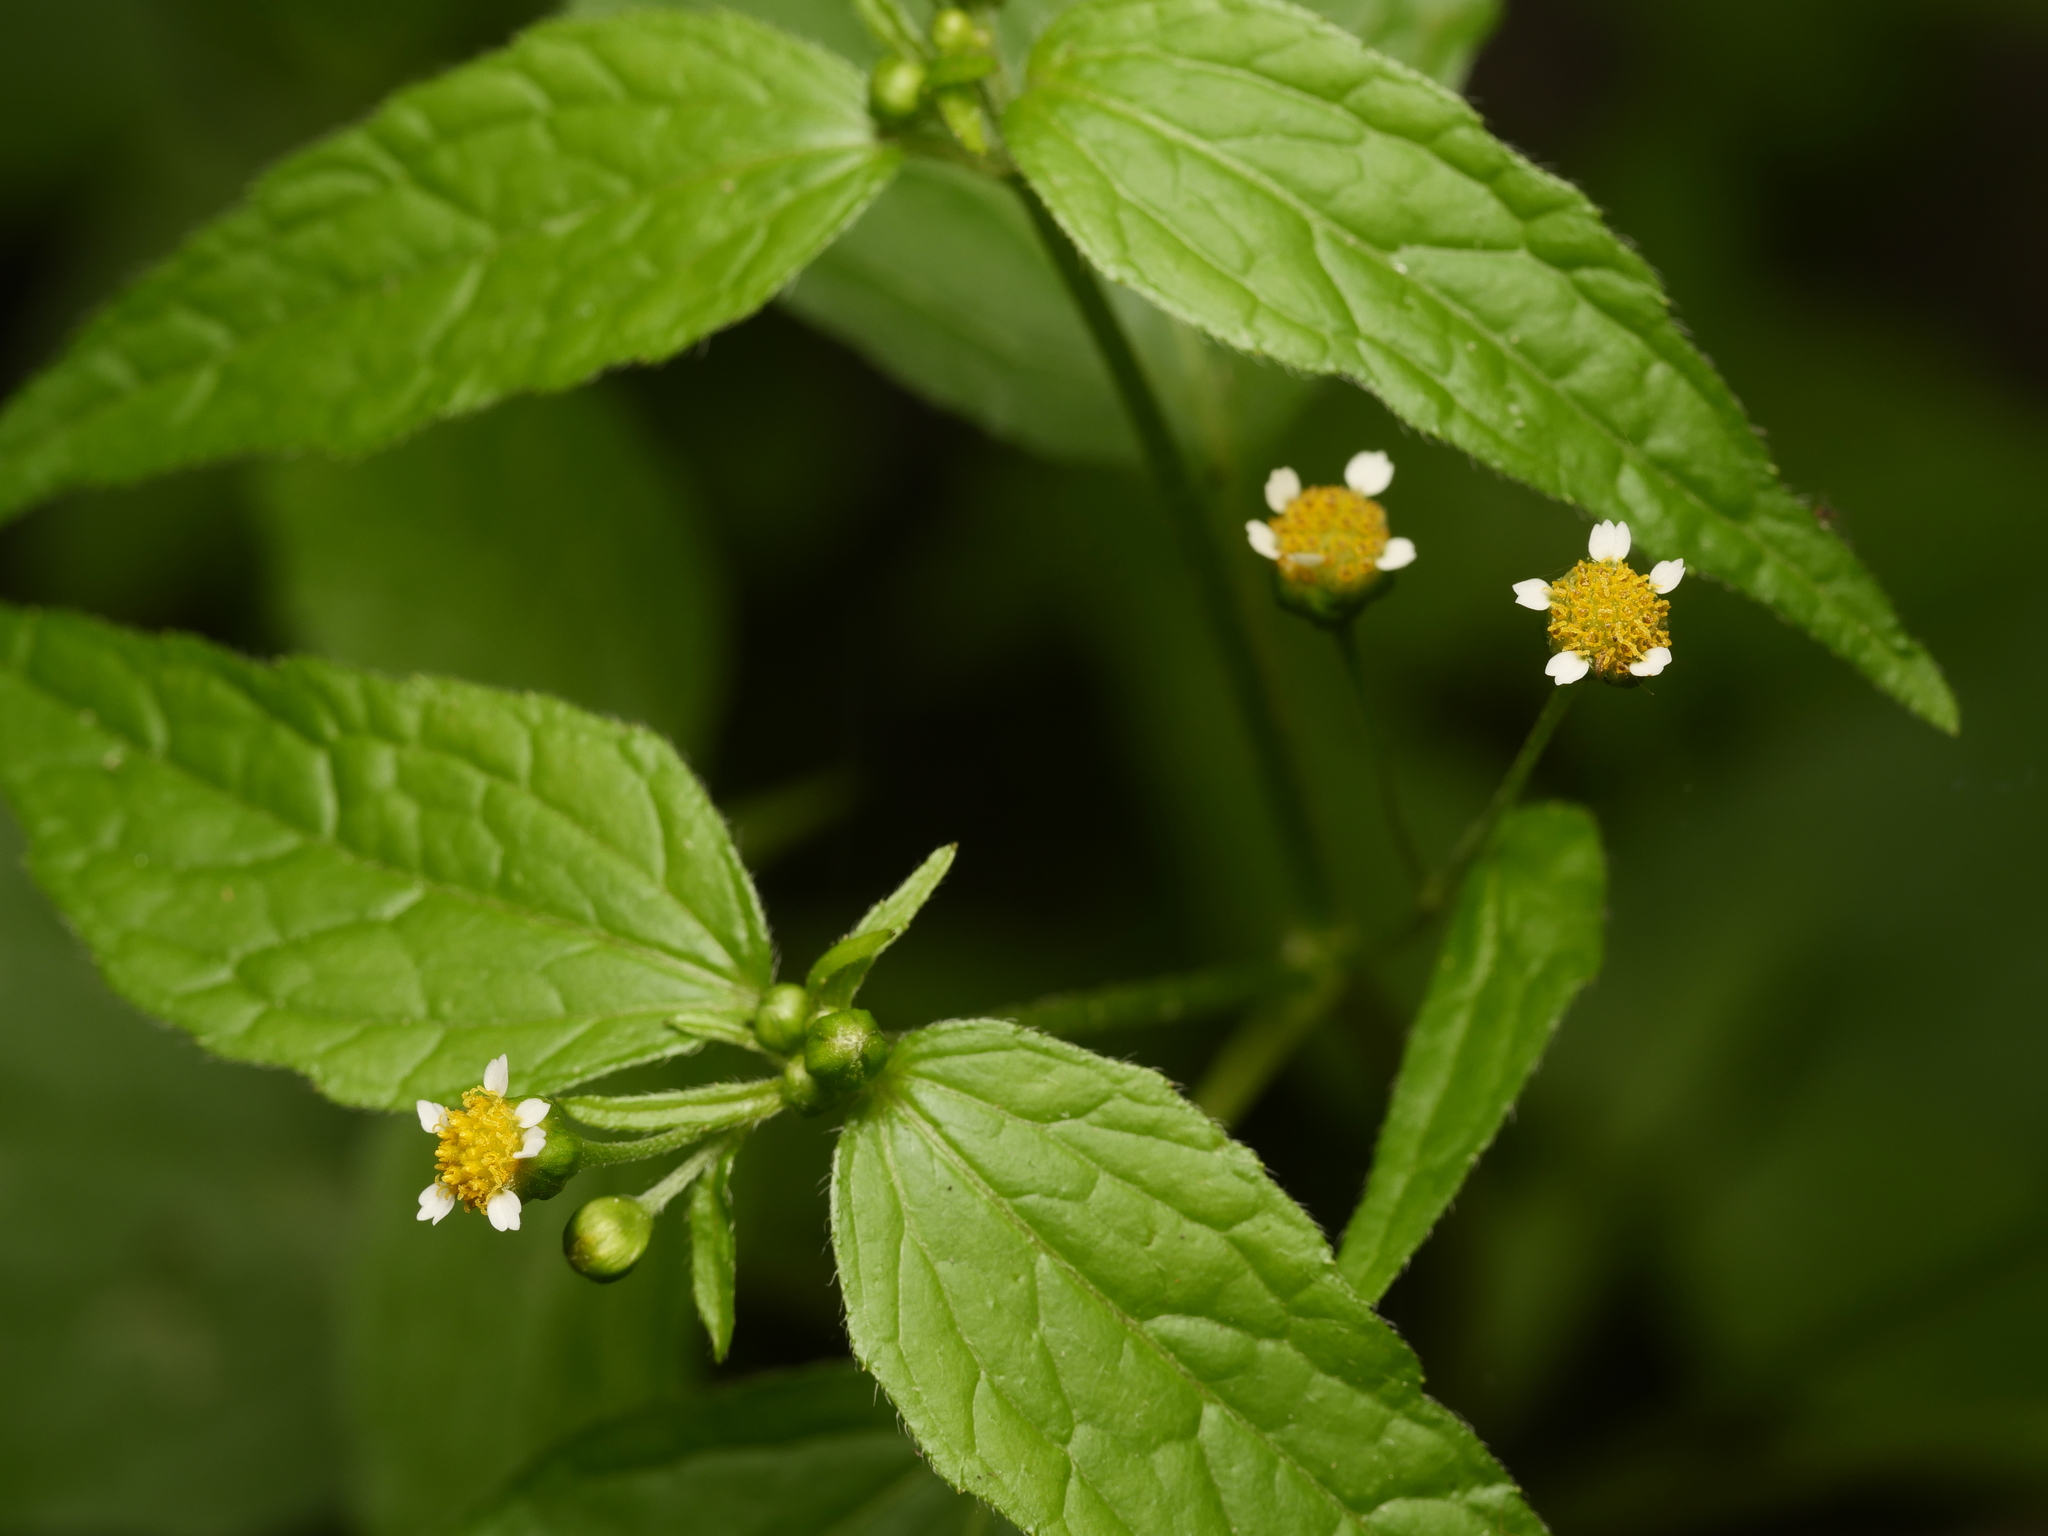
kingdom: Plantae
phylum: Tracheophyta
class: Magnoliopsida
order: Asterales
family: Asteraceae
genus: Galinsoga
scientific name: Galinsoga parviflora
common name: Gallant soldier
